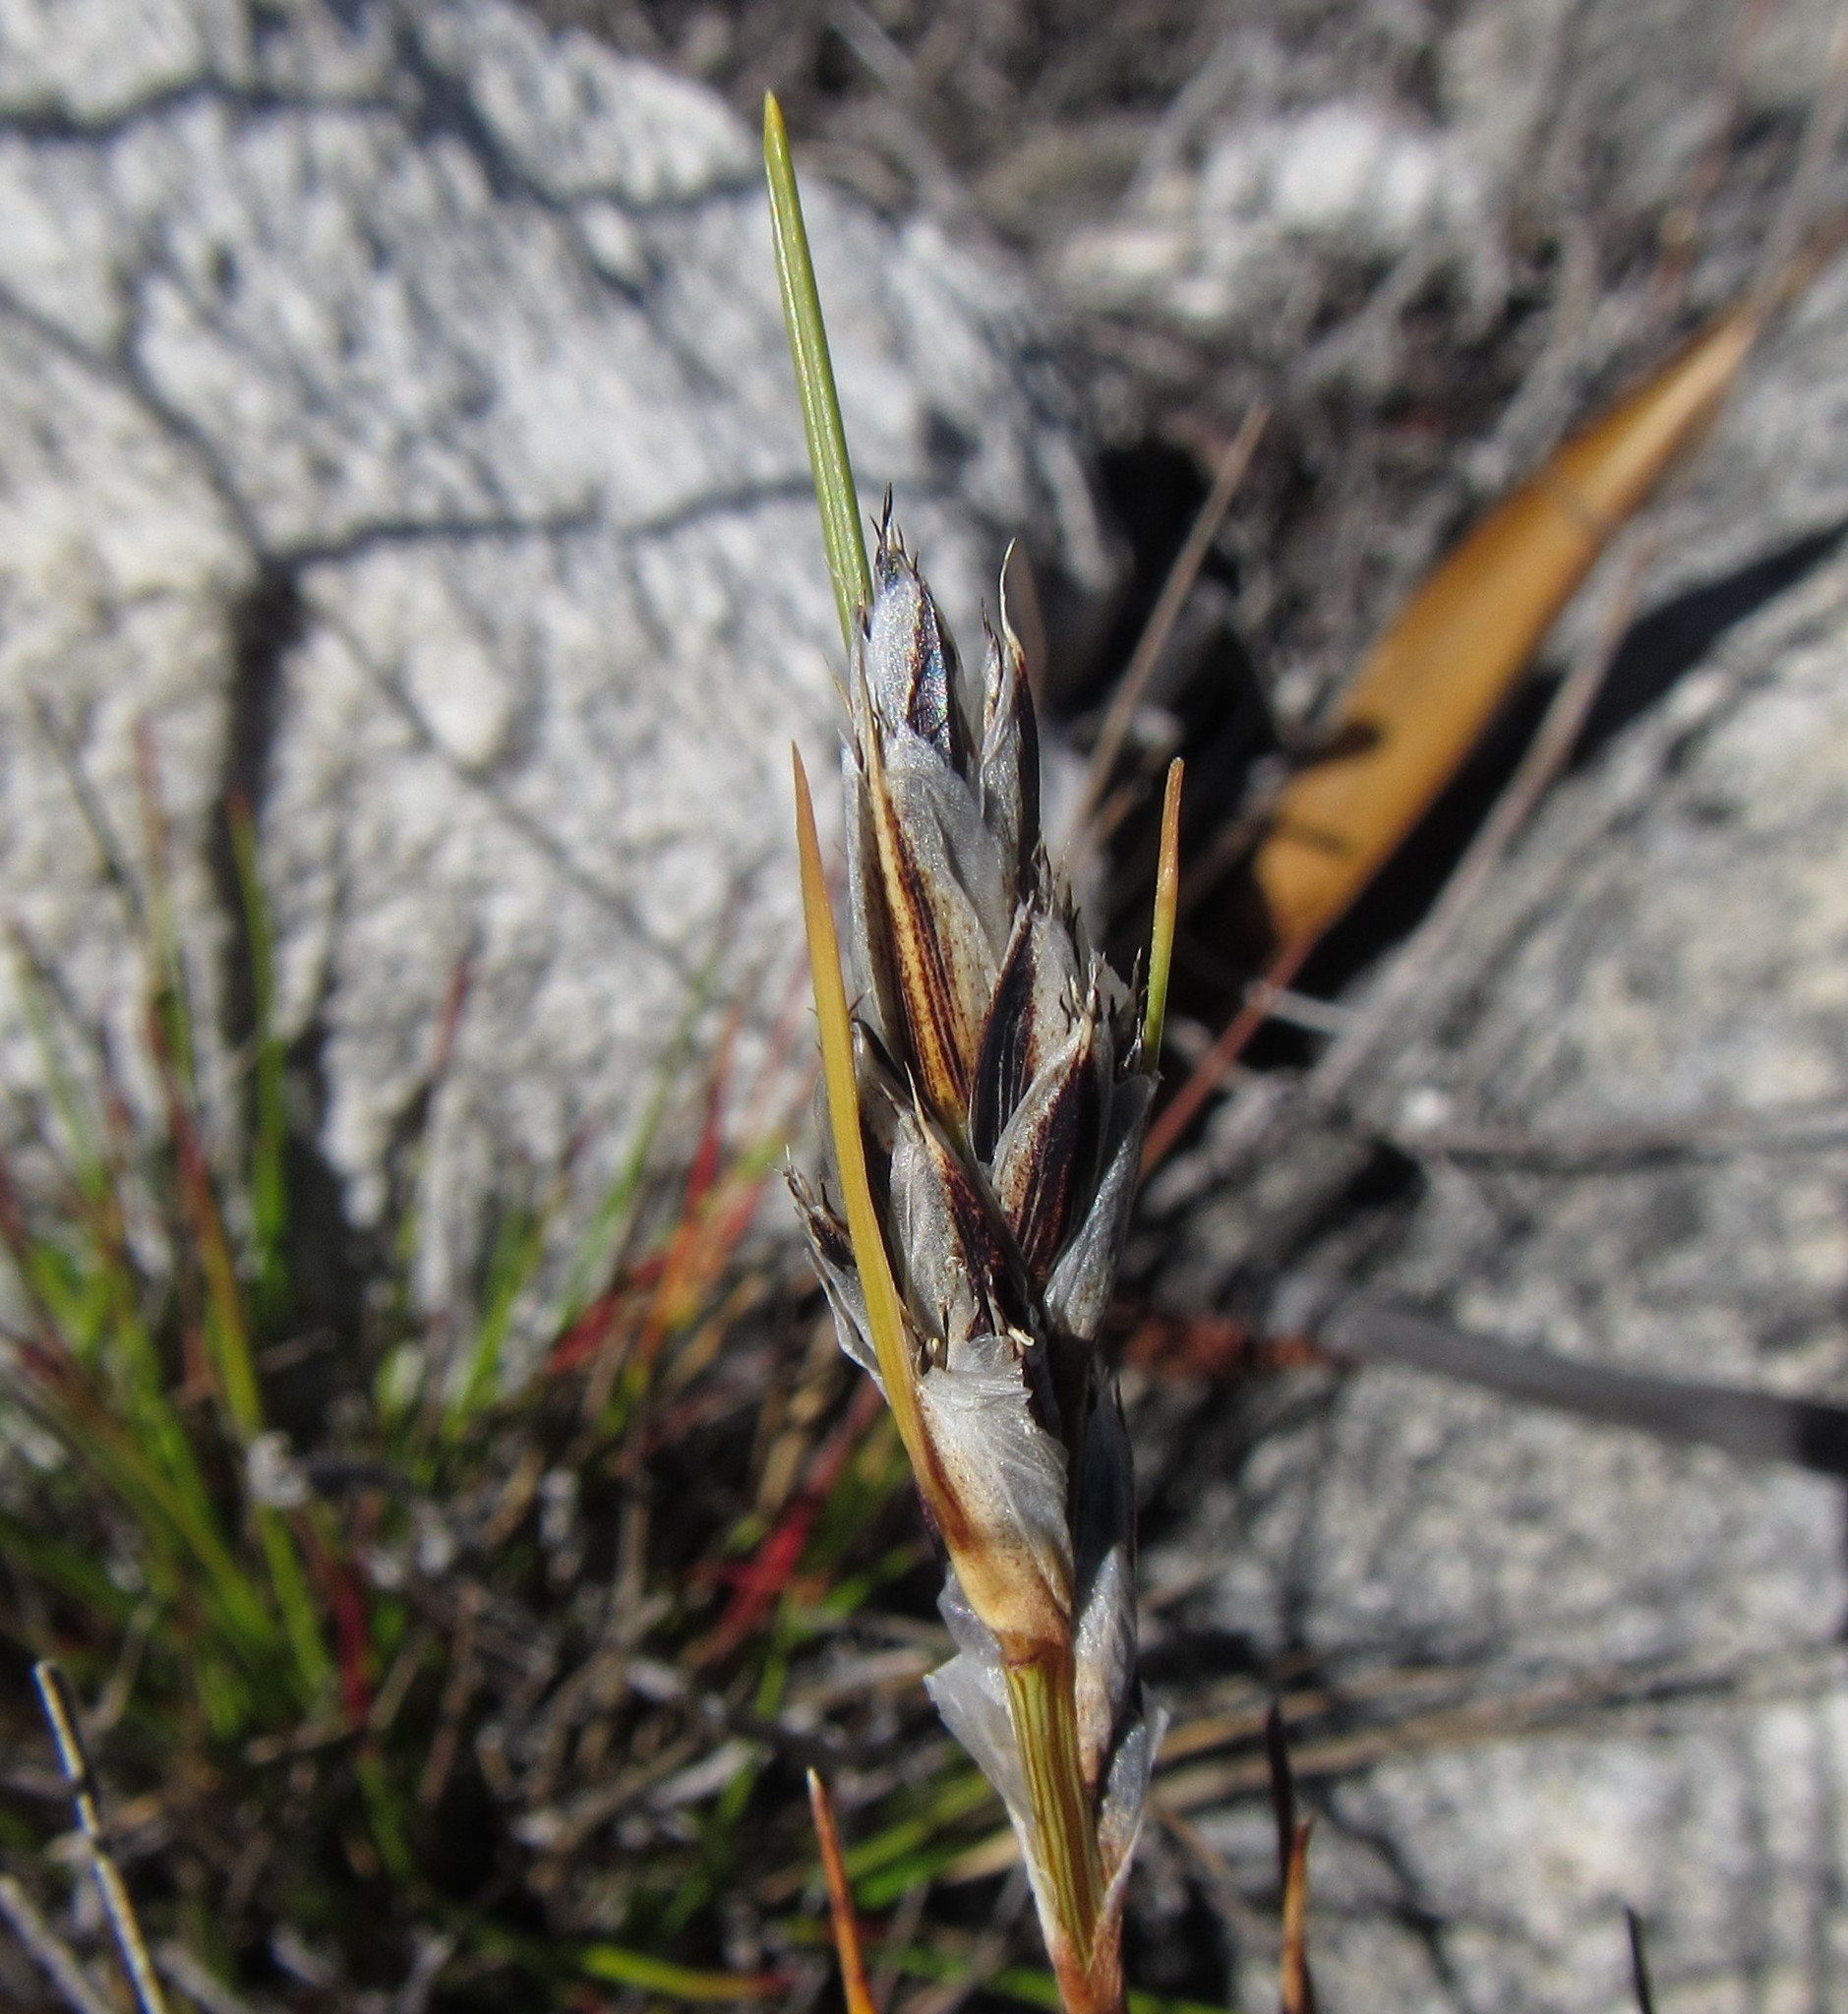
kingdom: Plantae
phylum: Tracheophyta
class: Liliopsida
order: Poales
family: Cyperaceae
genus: Ficinia
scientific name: Ficinia monticola
